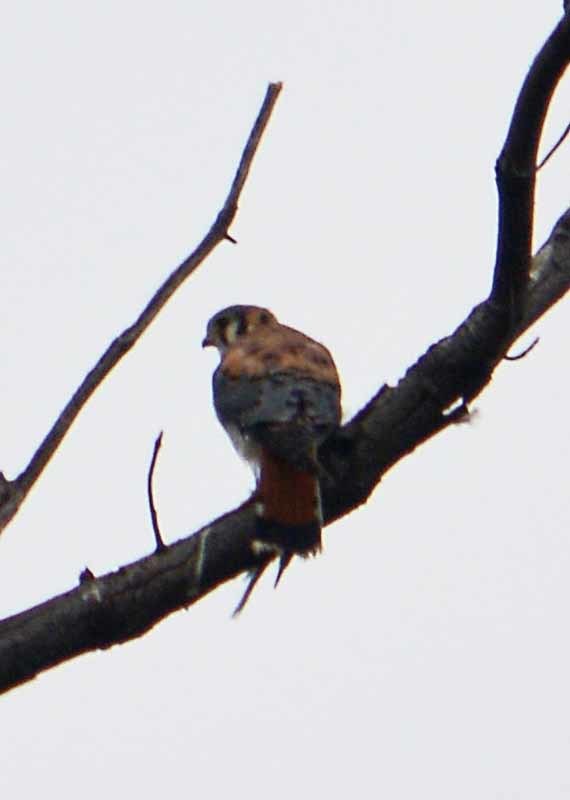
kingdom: Animalia
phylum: Chordata
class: Aves
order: Falconiformes
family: Falconidae
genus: Falco
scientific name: Falco sparverius
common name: American kestrel
